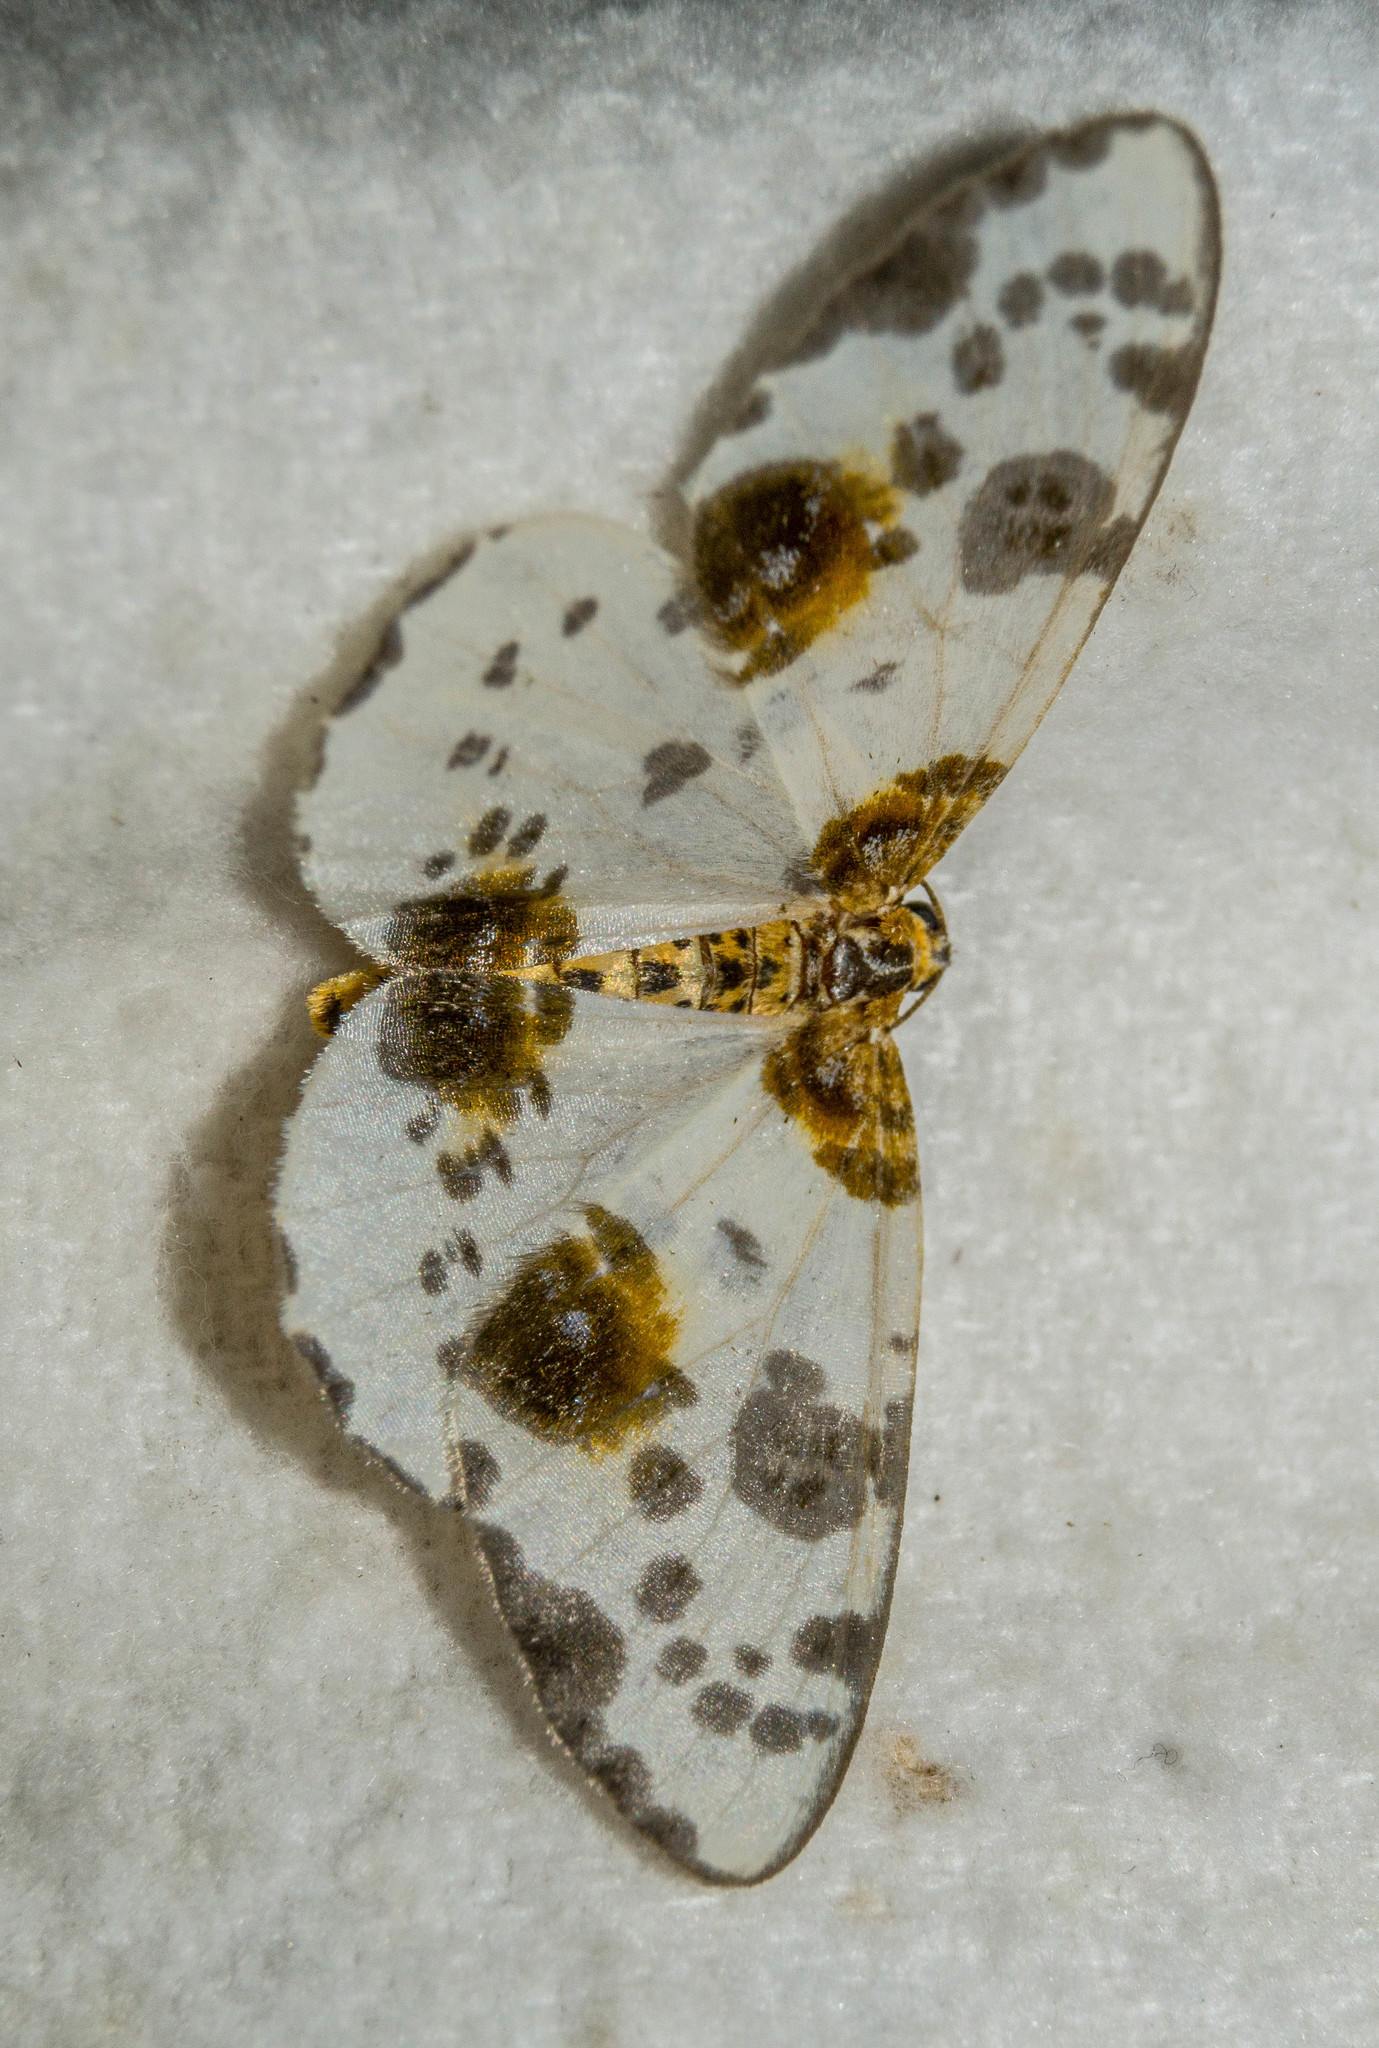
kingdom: Animalia
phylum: Arthropoda
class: Insecta
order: Lepidoptera
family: Geometridae
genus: Abraxas
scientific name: Abraxas sylvata
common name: Clouded magpie
